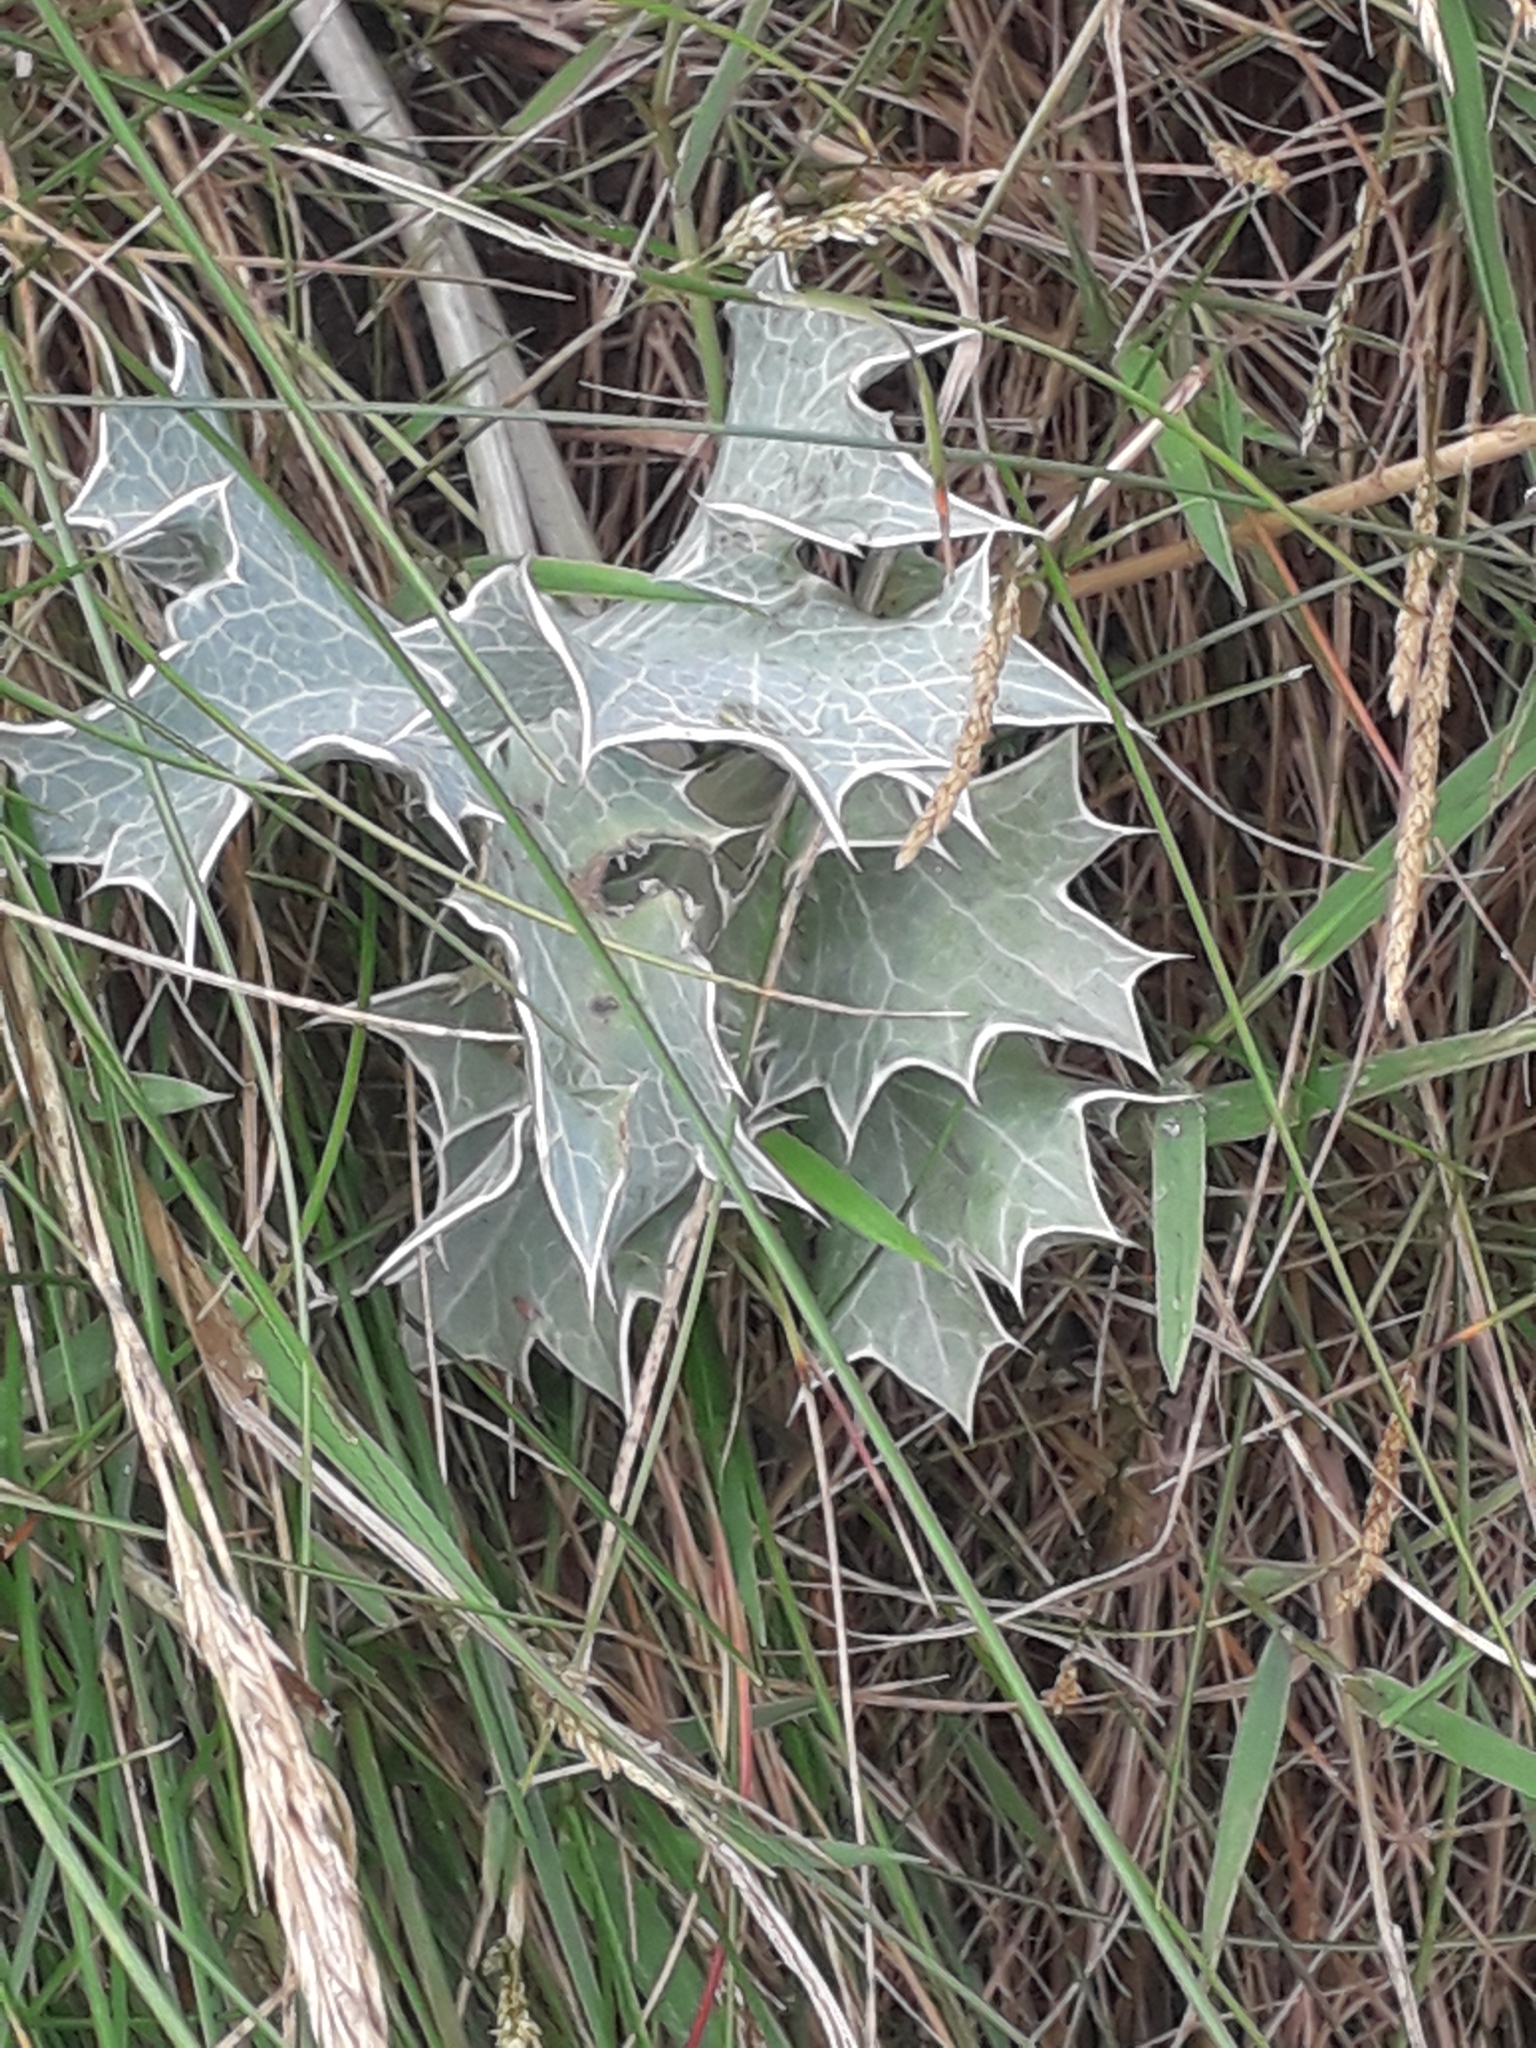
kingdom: Plantae
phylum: Tracheophyta
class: Magnoliopsida
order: Apiales
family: Apiaceae
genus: Eryngium
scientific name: Eryngium maritimum
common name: Sea-holly
